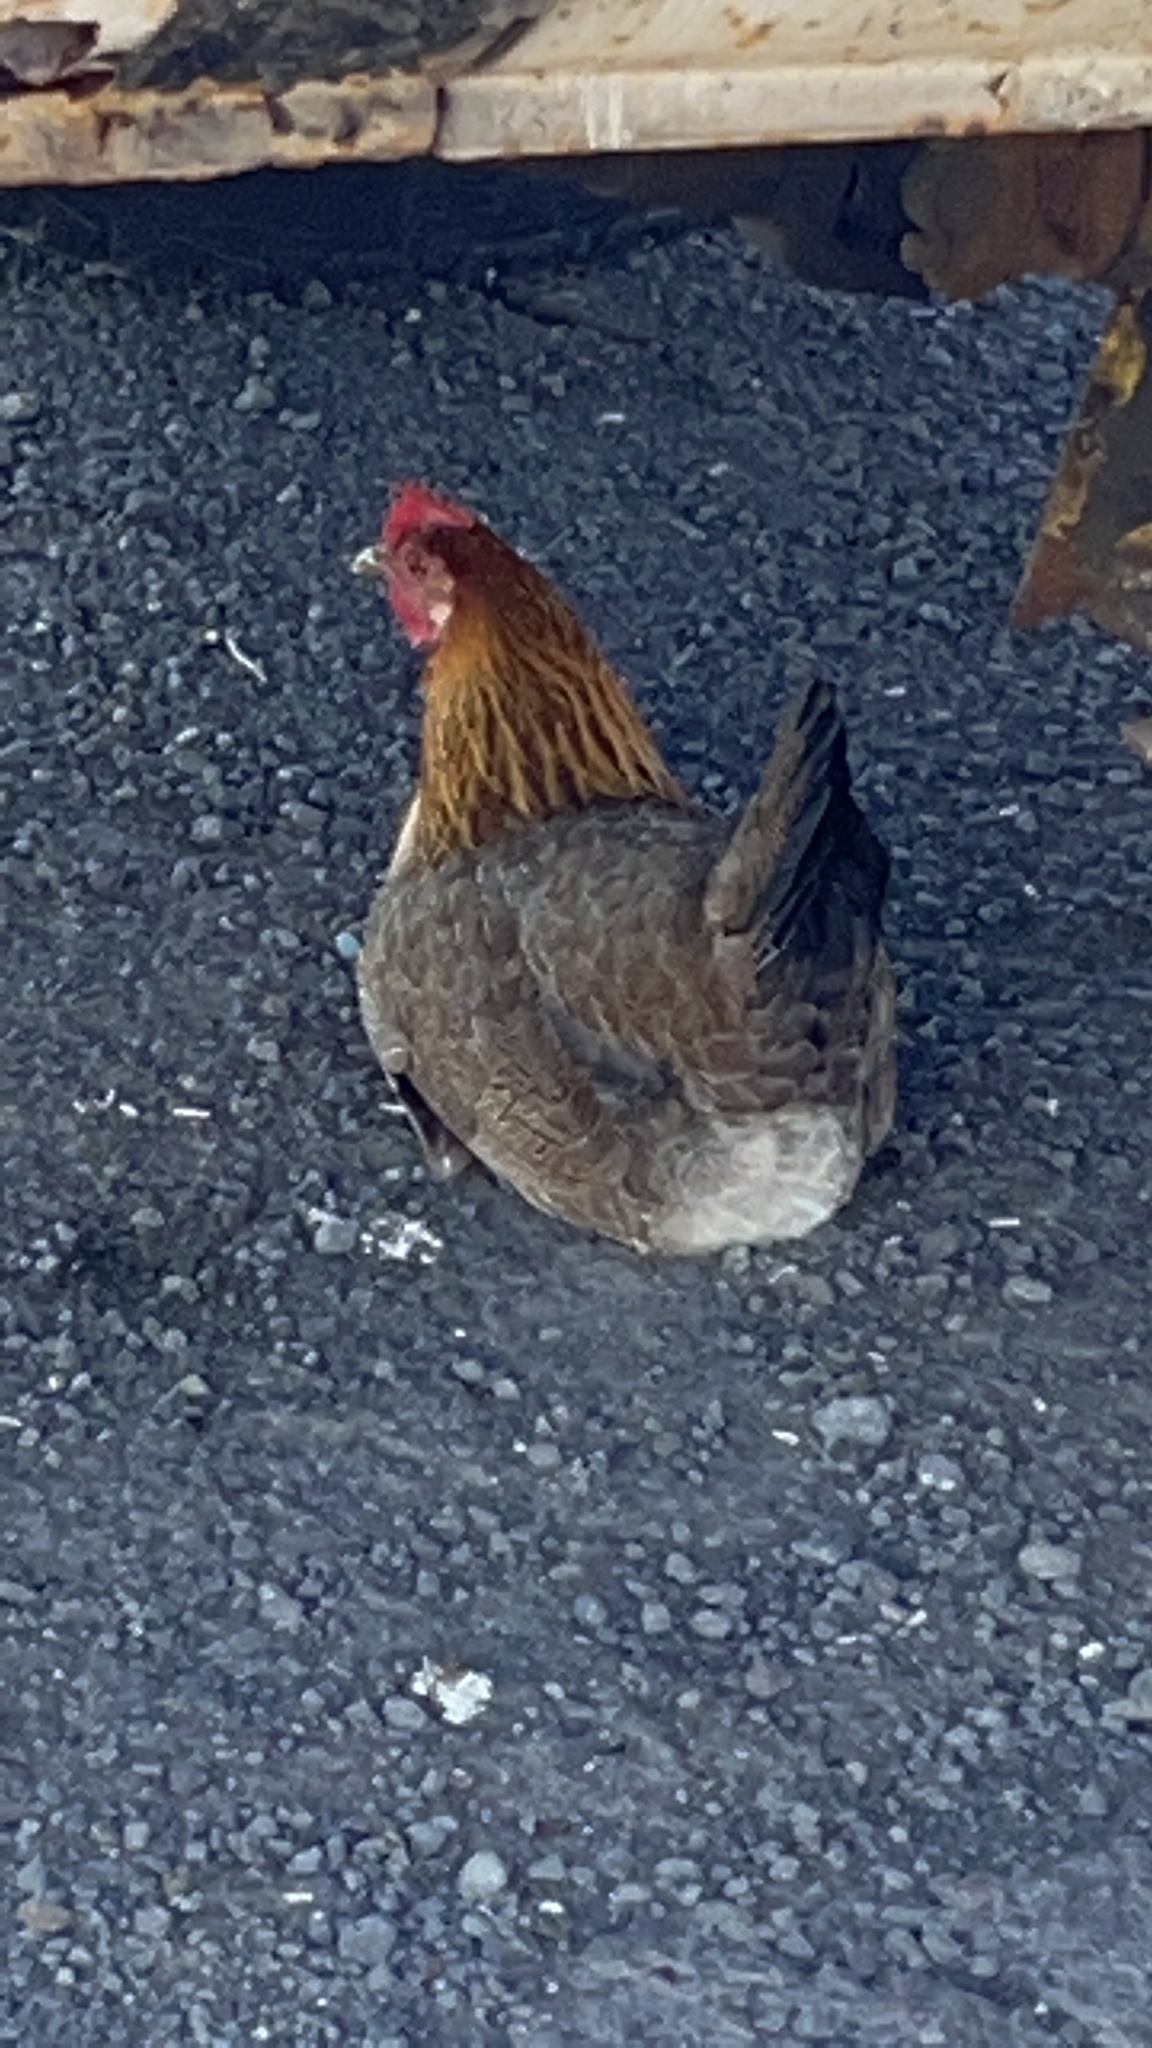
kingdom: Animalia
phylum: Chordata
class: Aves
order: Galliformes
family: Phasianidae
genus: Gallus
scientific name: Gallus gallus
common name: Red junglefowl
